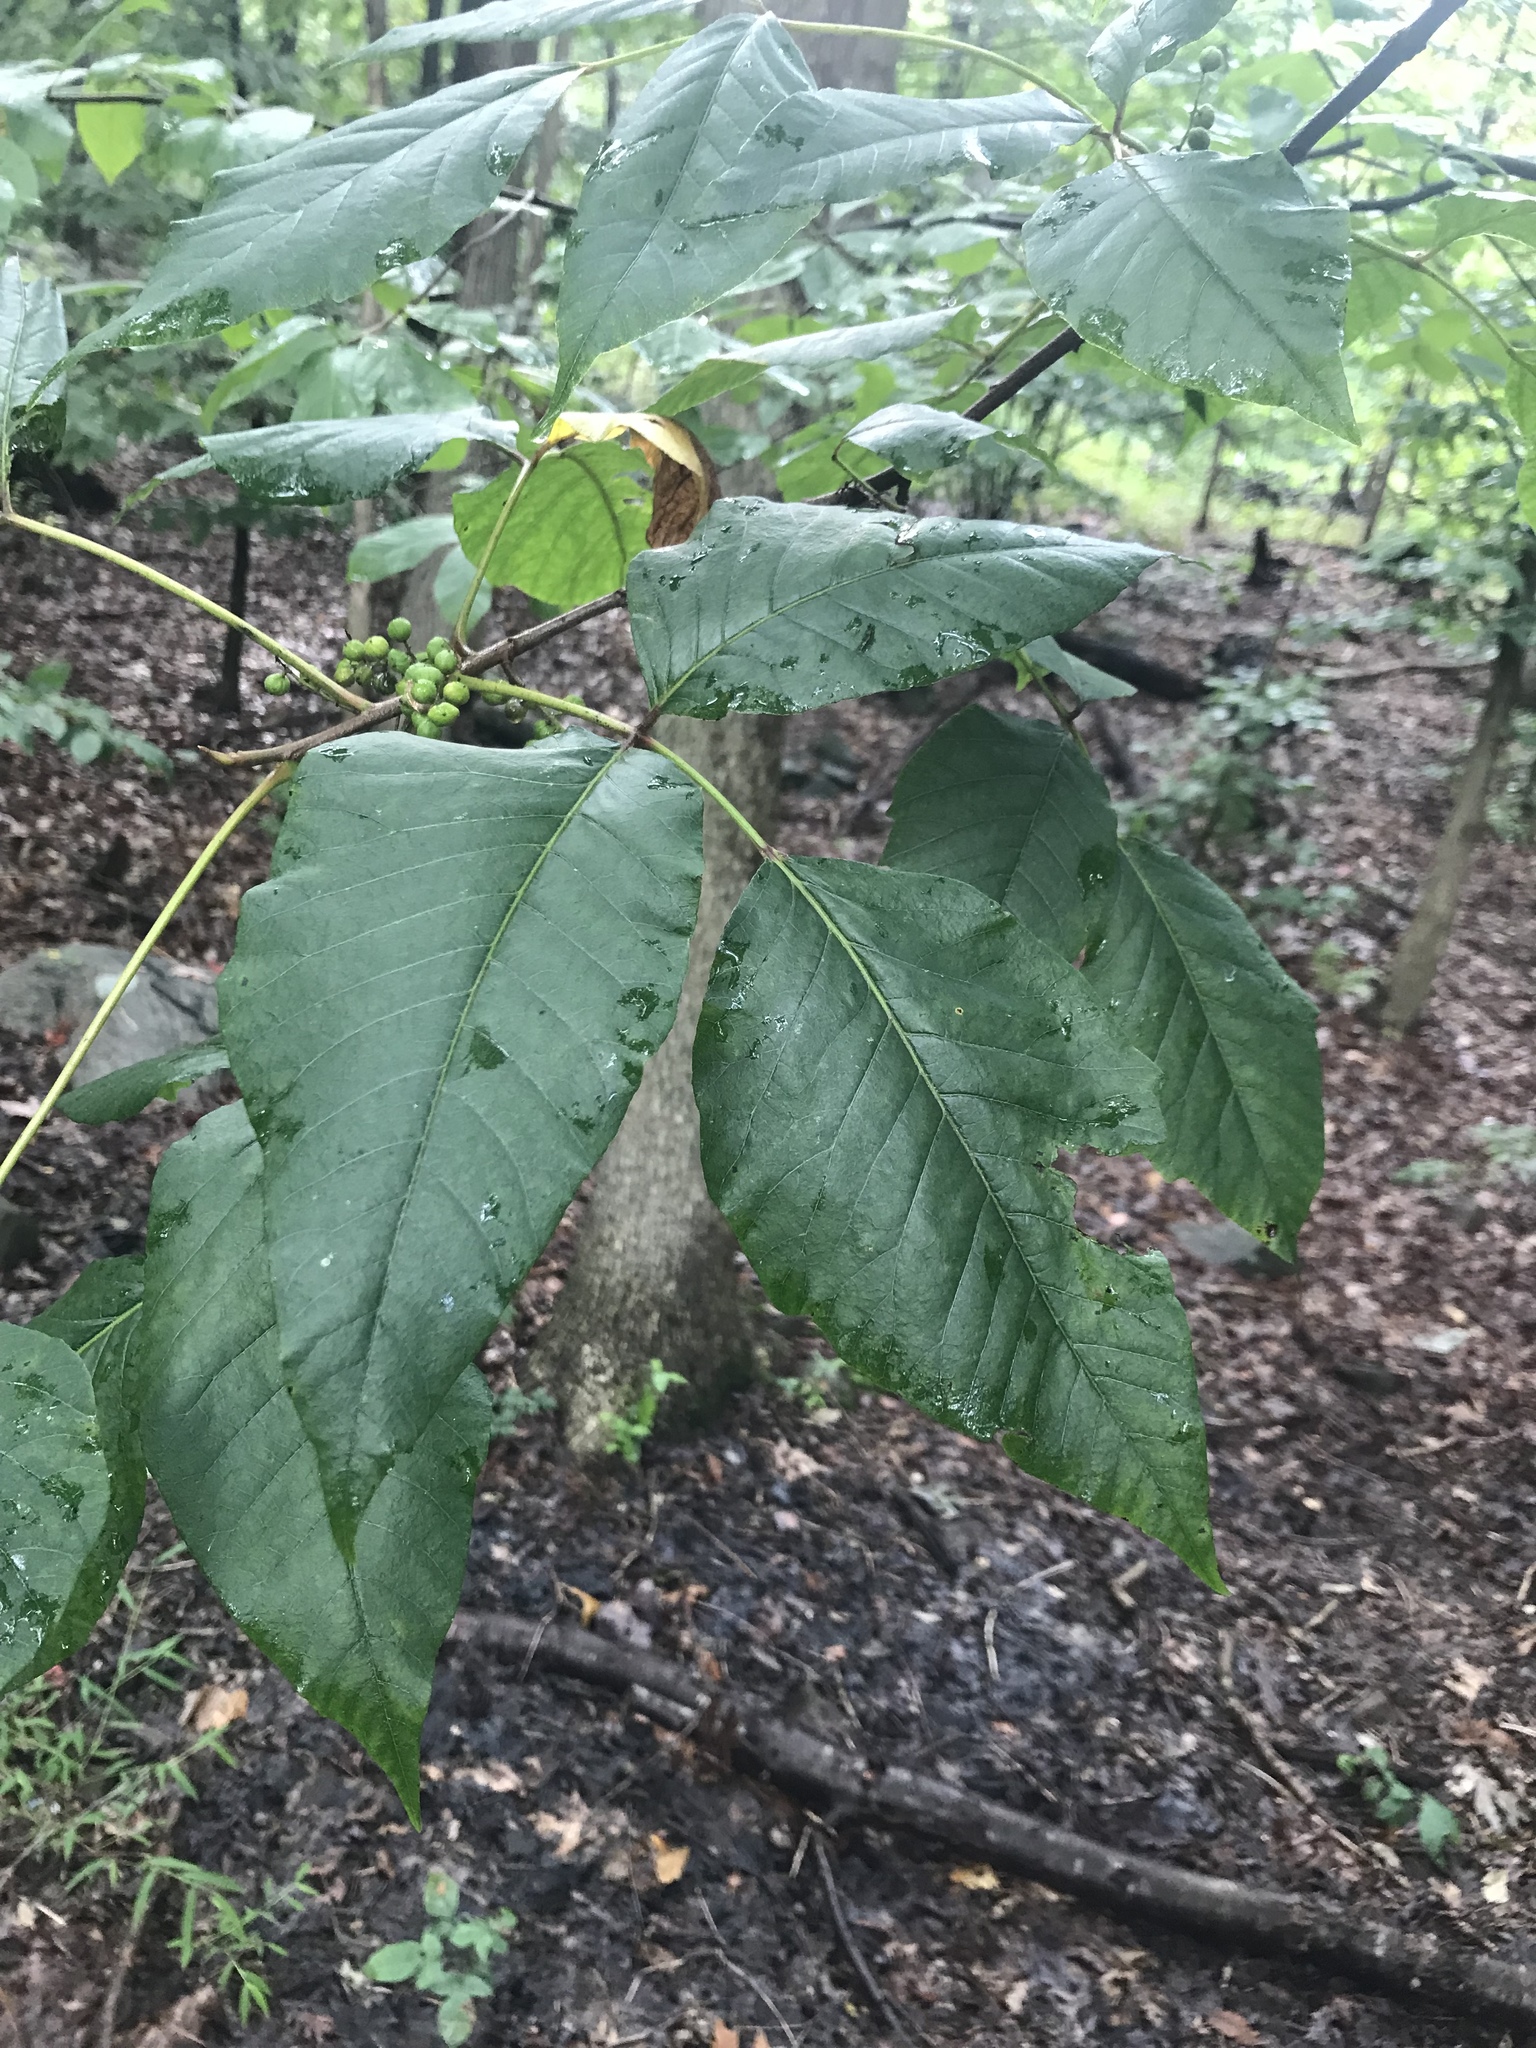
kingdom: Plantae
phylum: Tracheophyta
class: Magnoliopsida
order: Sapindales
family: Anacardiaceae
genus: Toxicodendron
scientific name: Toxicodendron radicans
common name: Poison ivy
